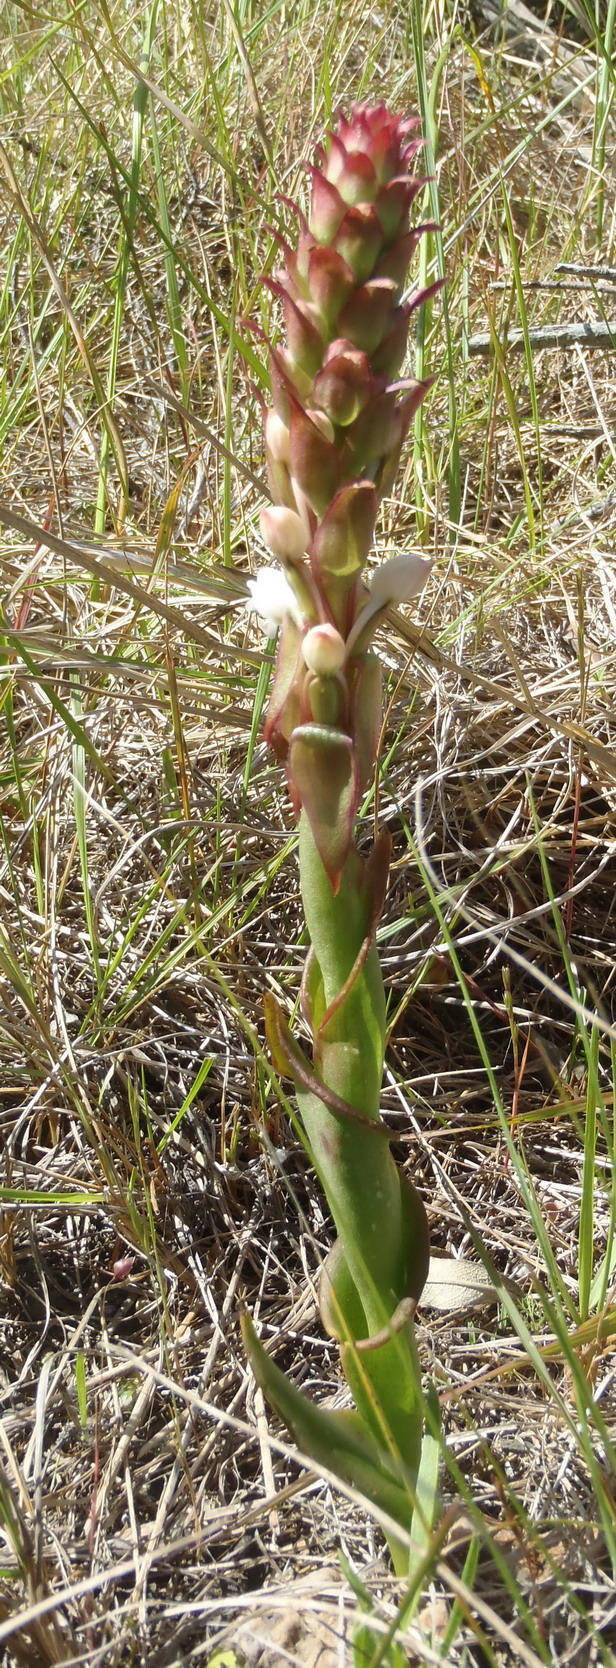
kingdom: Plantae
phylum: Tracheophyta
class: Liliopsida
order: Asparagales
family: Orchidaceae
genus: Satyrium
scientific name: Satyrium acuminatum
